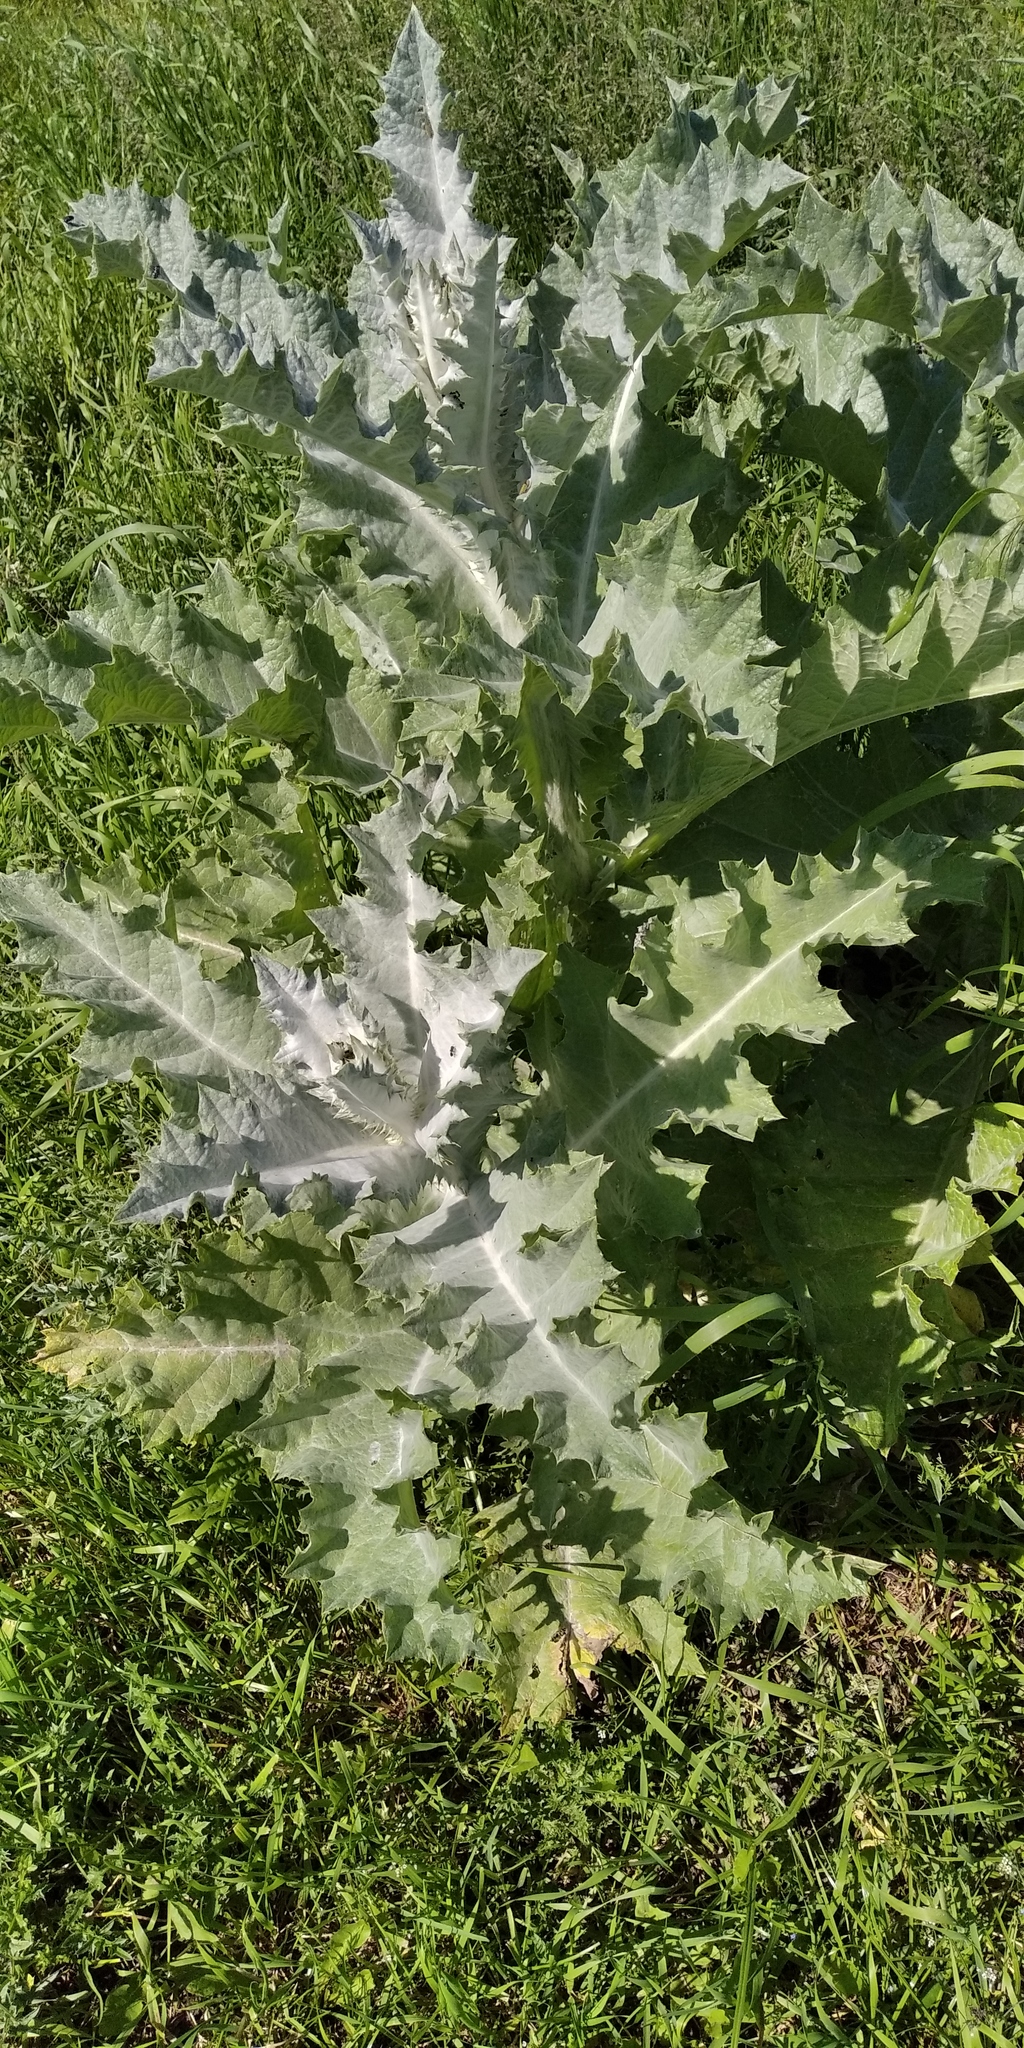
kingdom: Plantae
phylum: Tracheophyta
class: Magnoliopsida
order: Asterales
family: Asteraceae
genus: Onopordum
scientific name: Onopordum acanthium
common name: Scotch thistle
